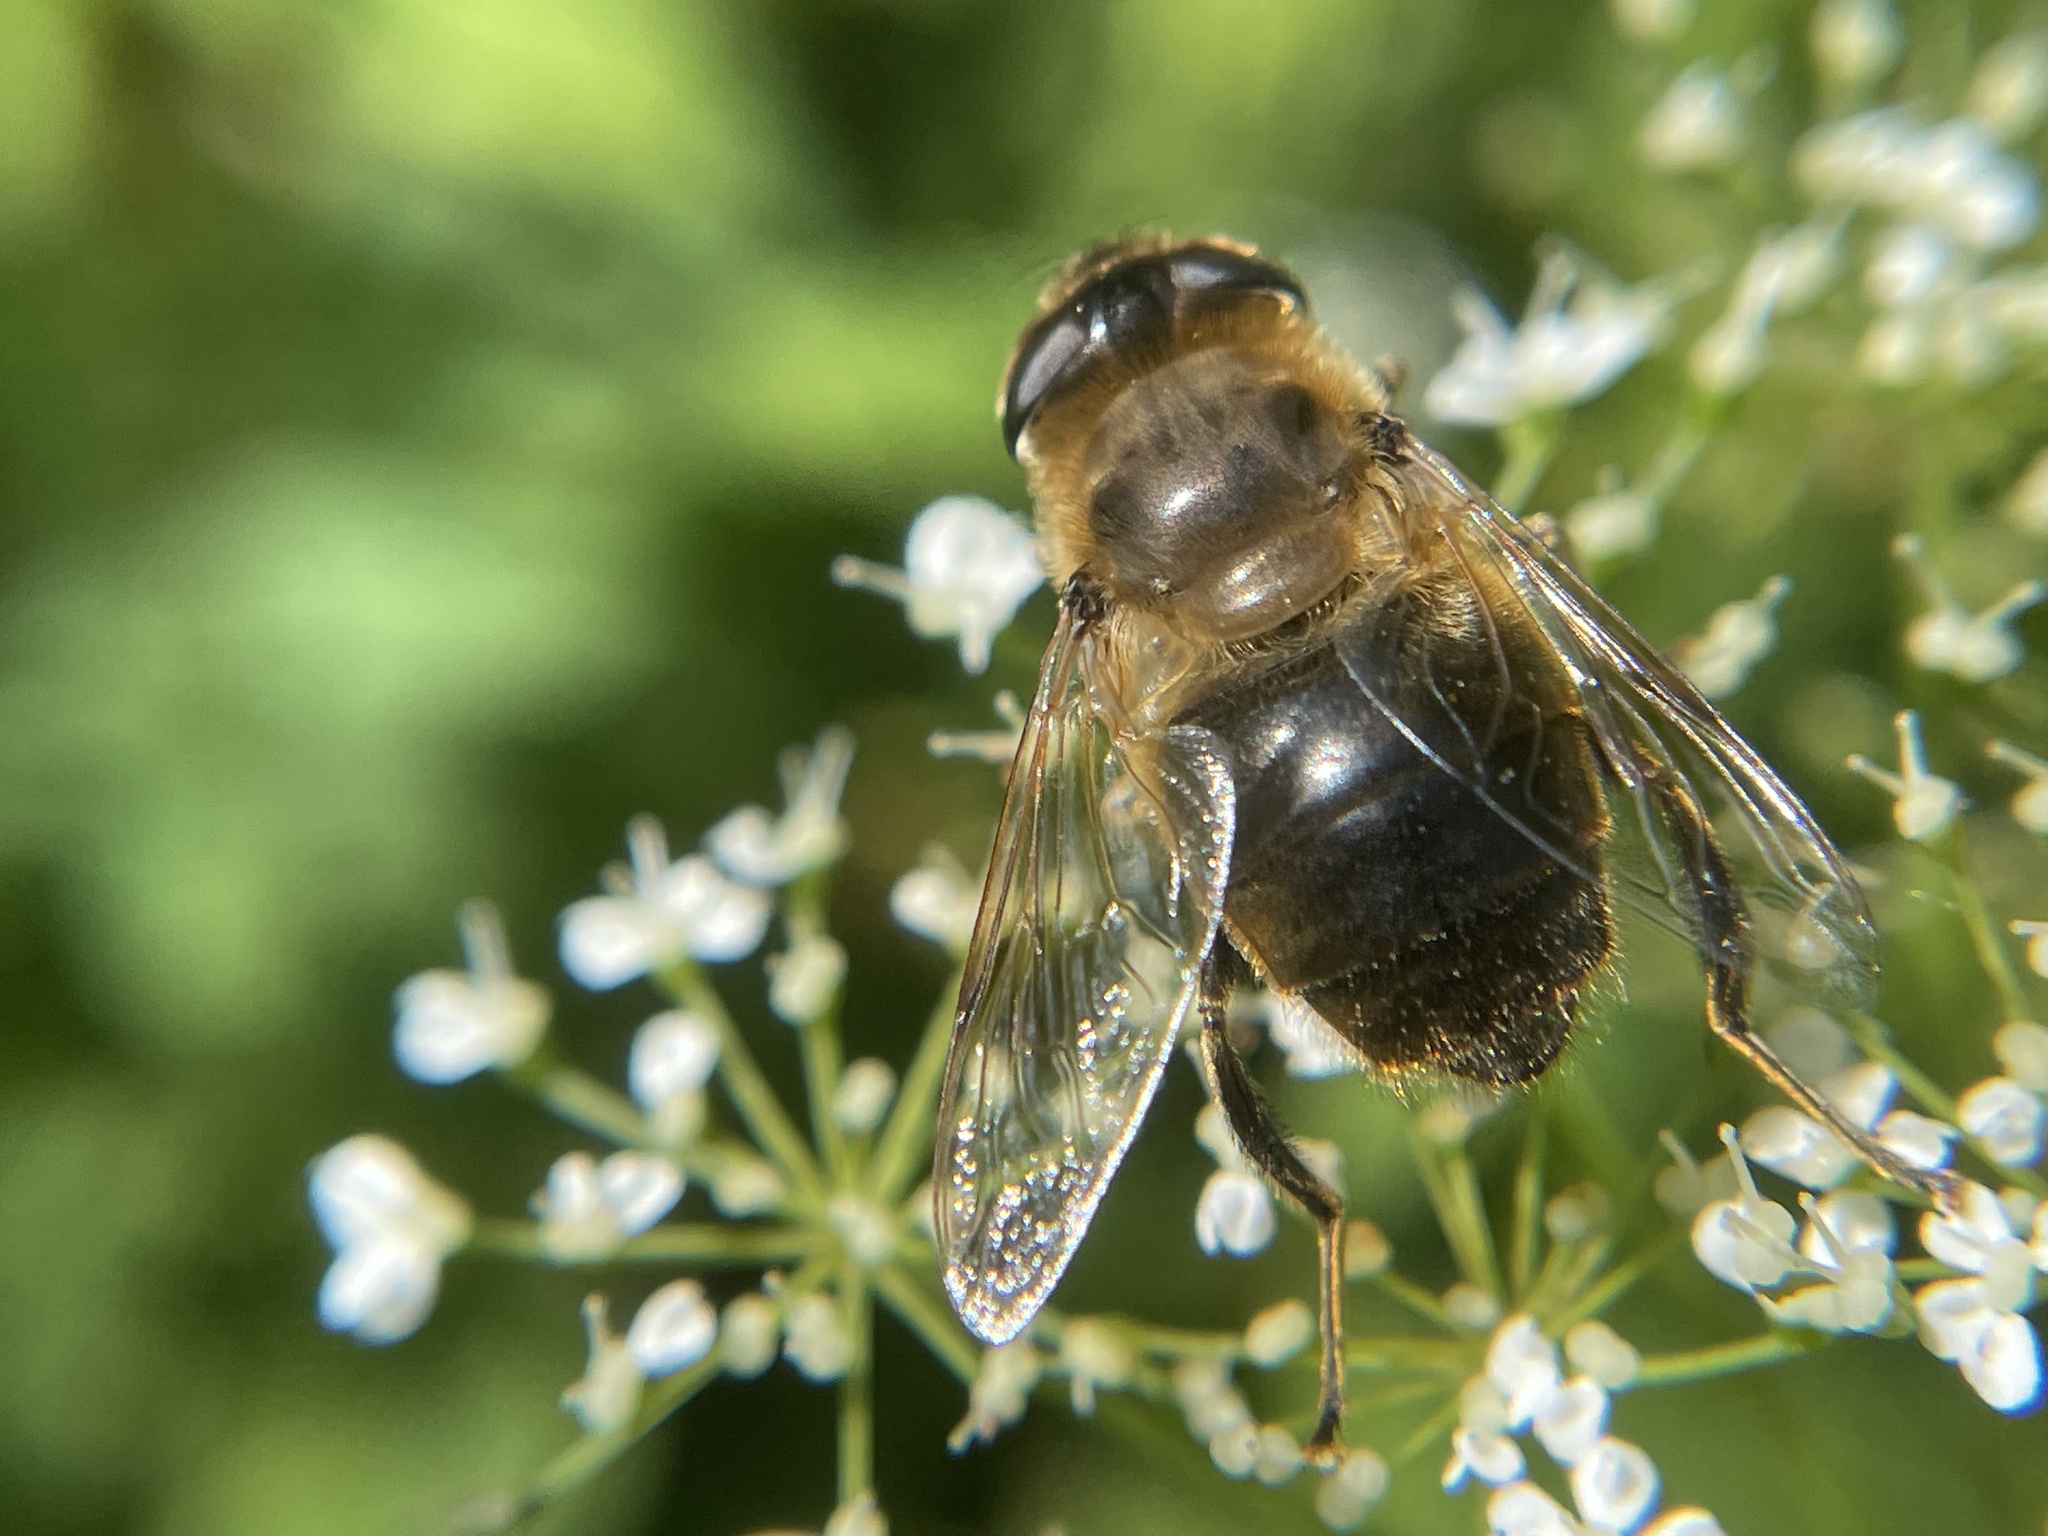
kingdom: Animalia
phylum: Arthropoda
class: Insecta
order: Diptera
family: Syrphidae
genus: Eristalis
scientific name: Eristalis tenax
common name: Drone fly
